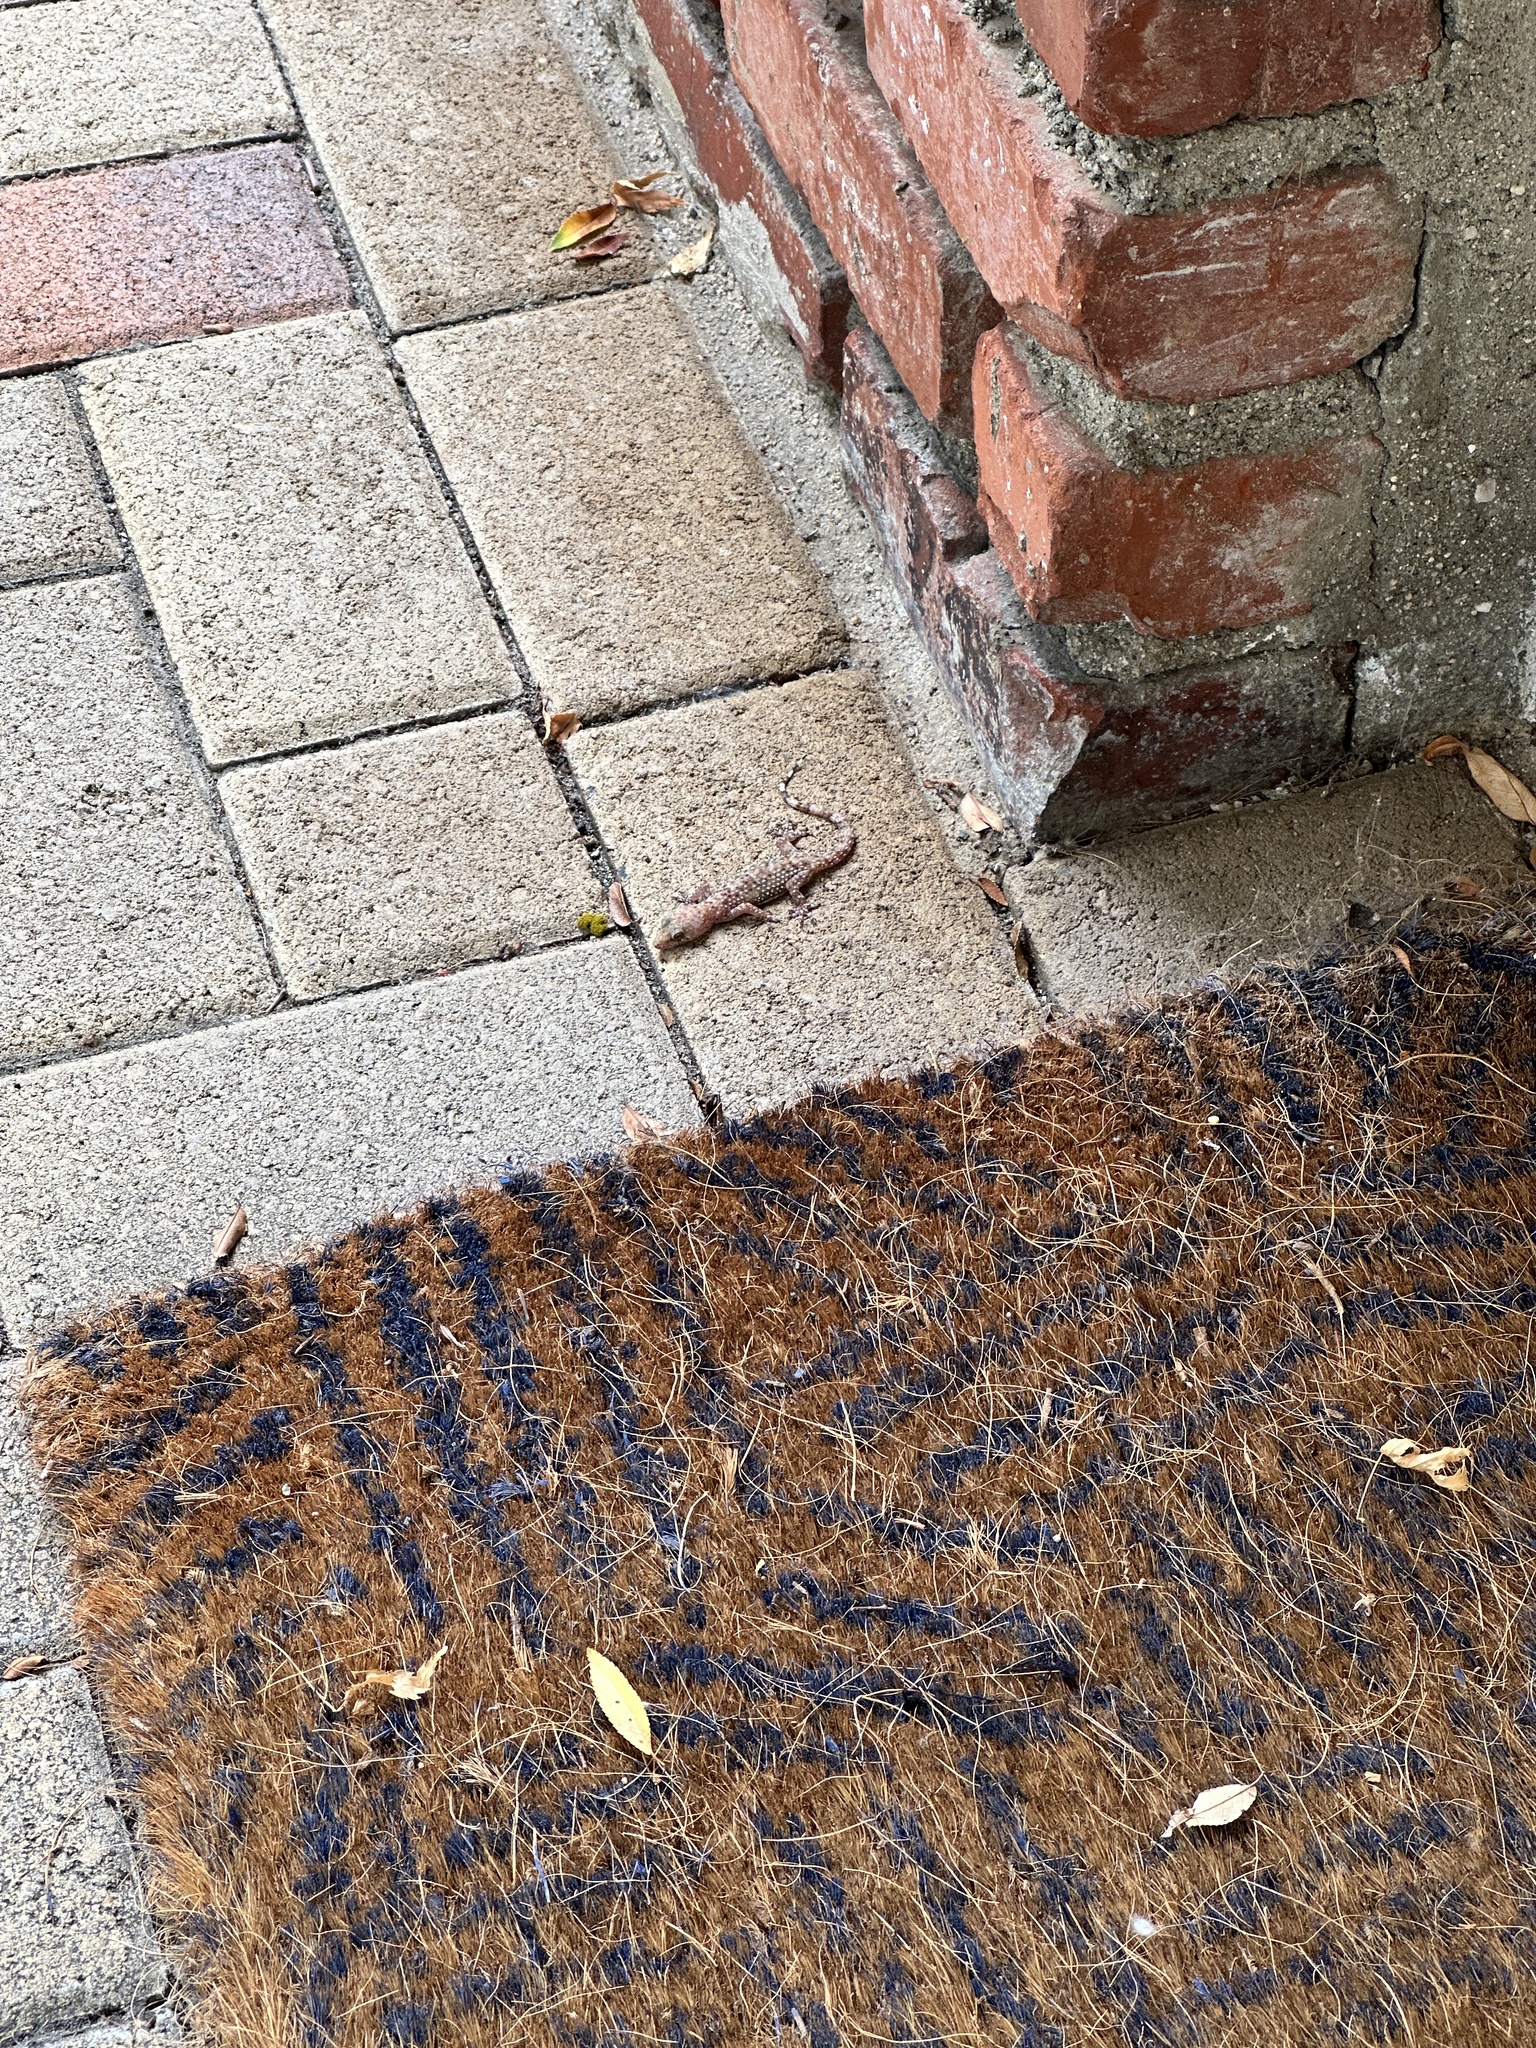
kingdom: Animalia
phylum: Chordata
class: Squamata
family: Gekkonidae
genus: Hemidactylus
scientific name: Hemidactylus turcicus
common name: Turkish gecko
